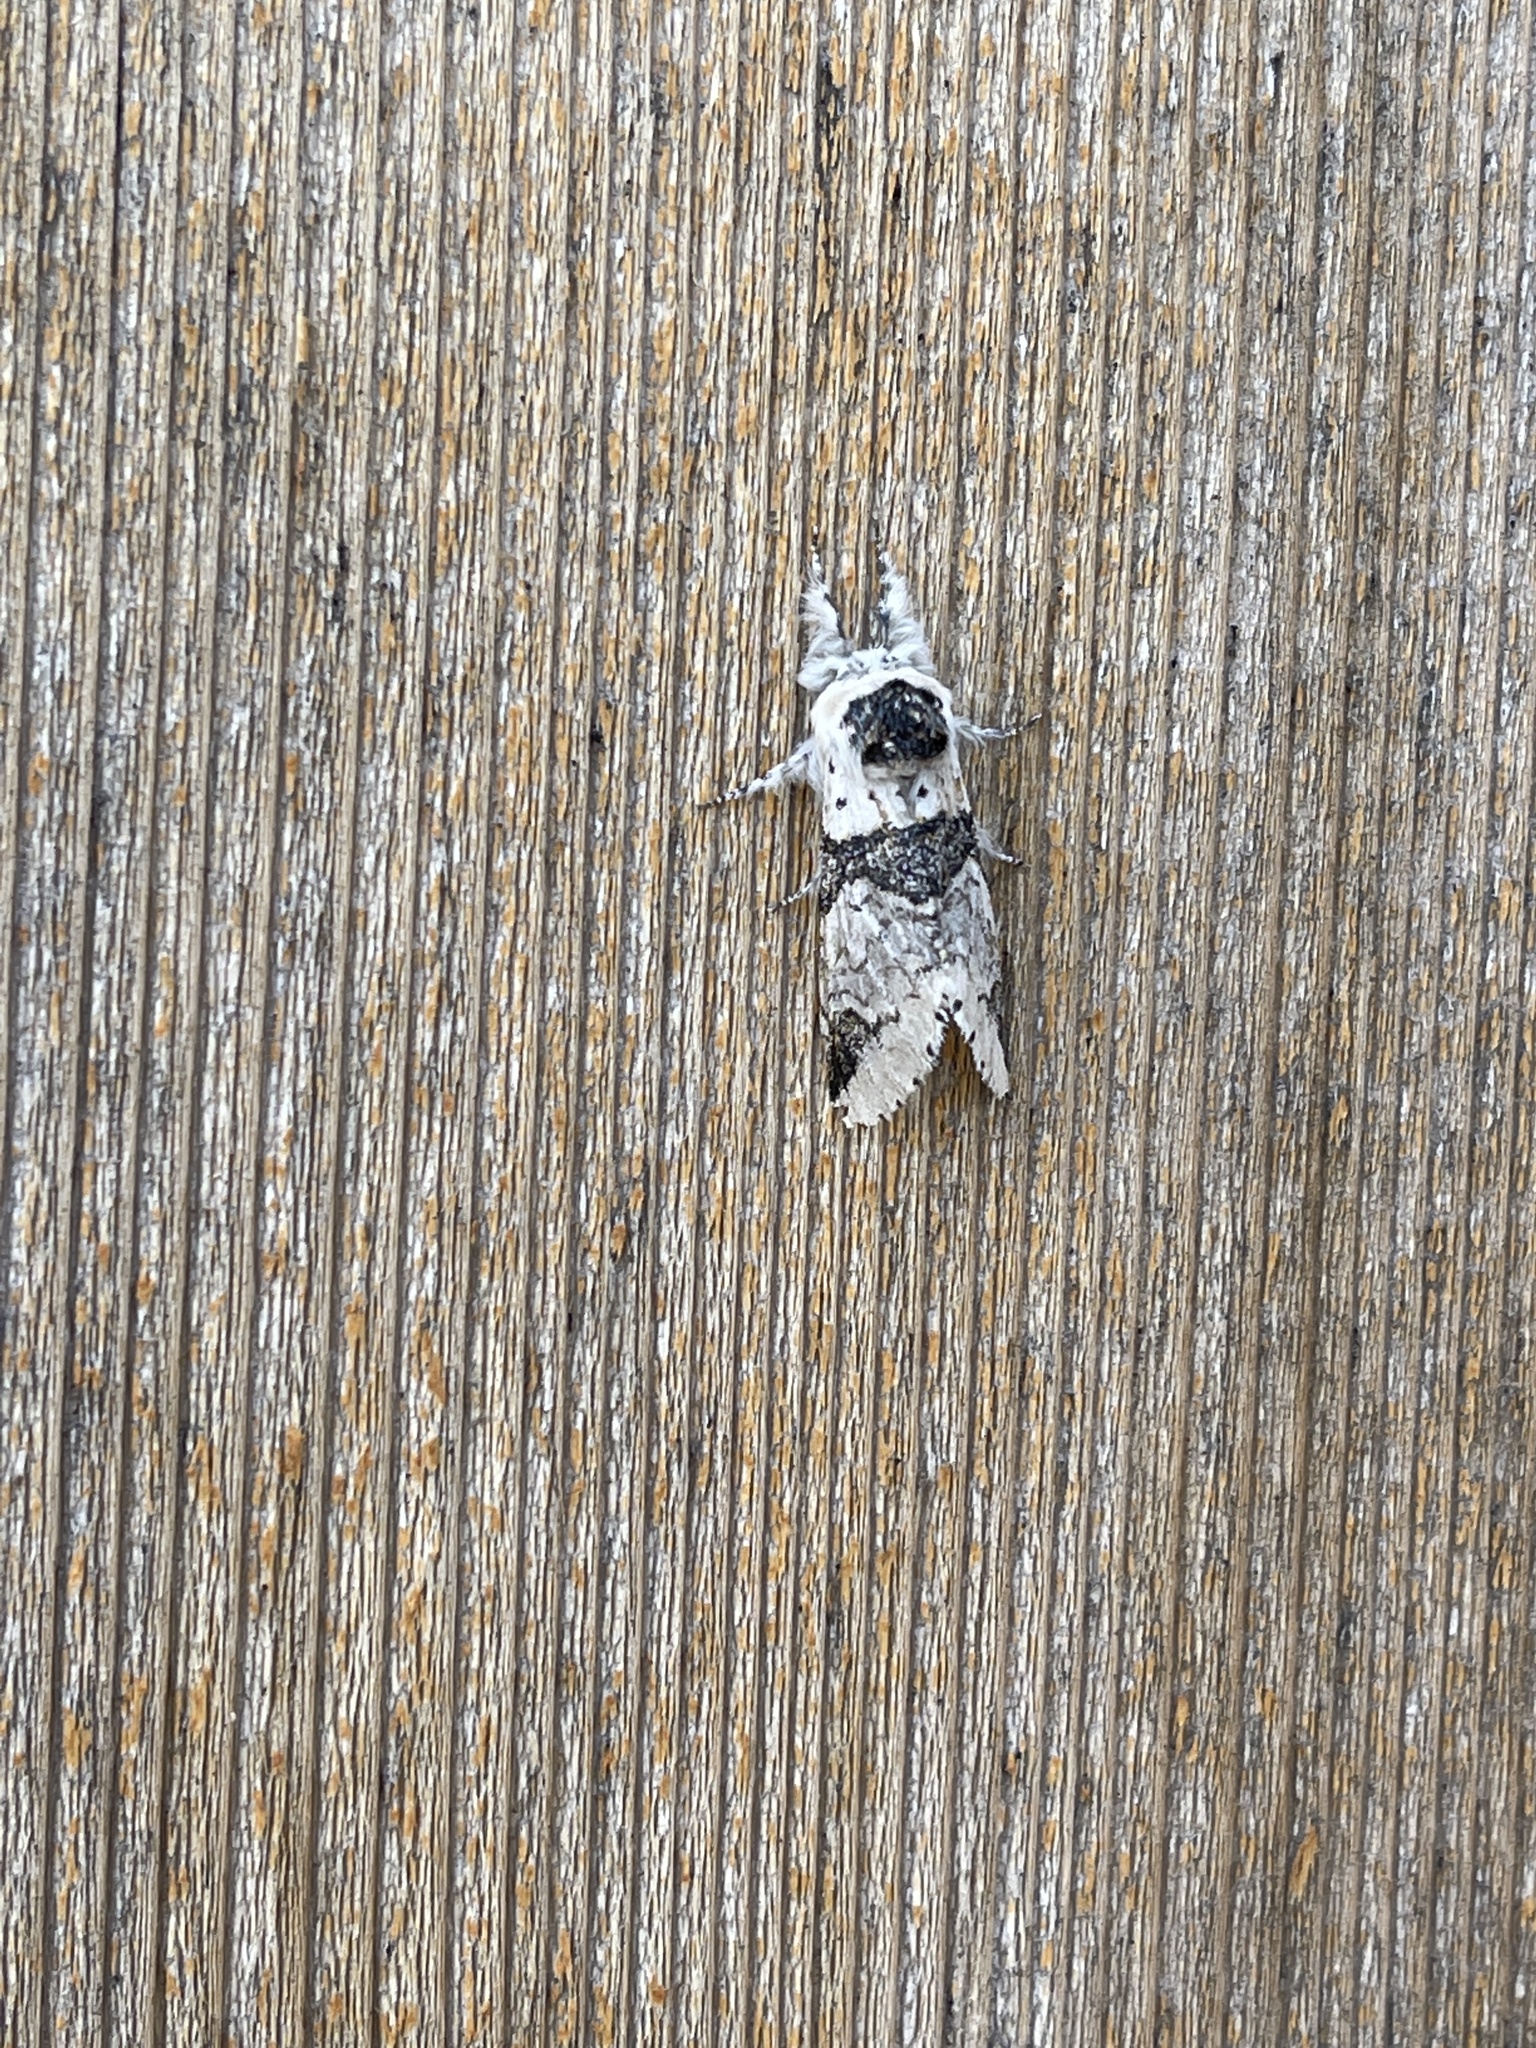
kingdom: Animalia
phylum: Arthropoda
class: Insecta
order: Lepidoptera
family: Notodontidae
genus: Furcula
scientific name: Furcula scolopendrina
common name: Zigzag furcula moth
